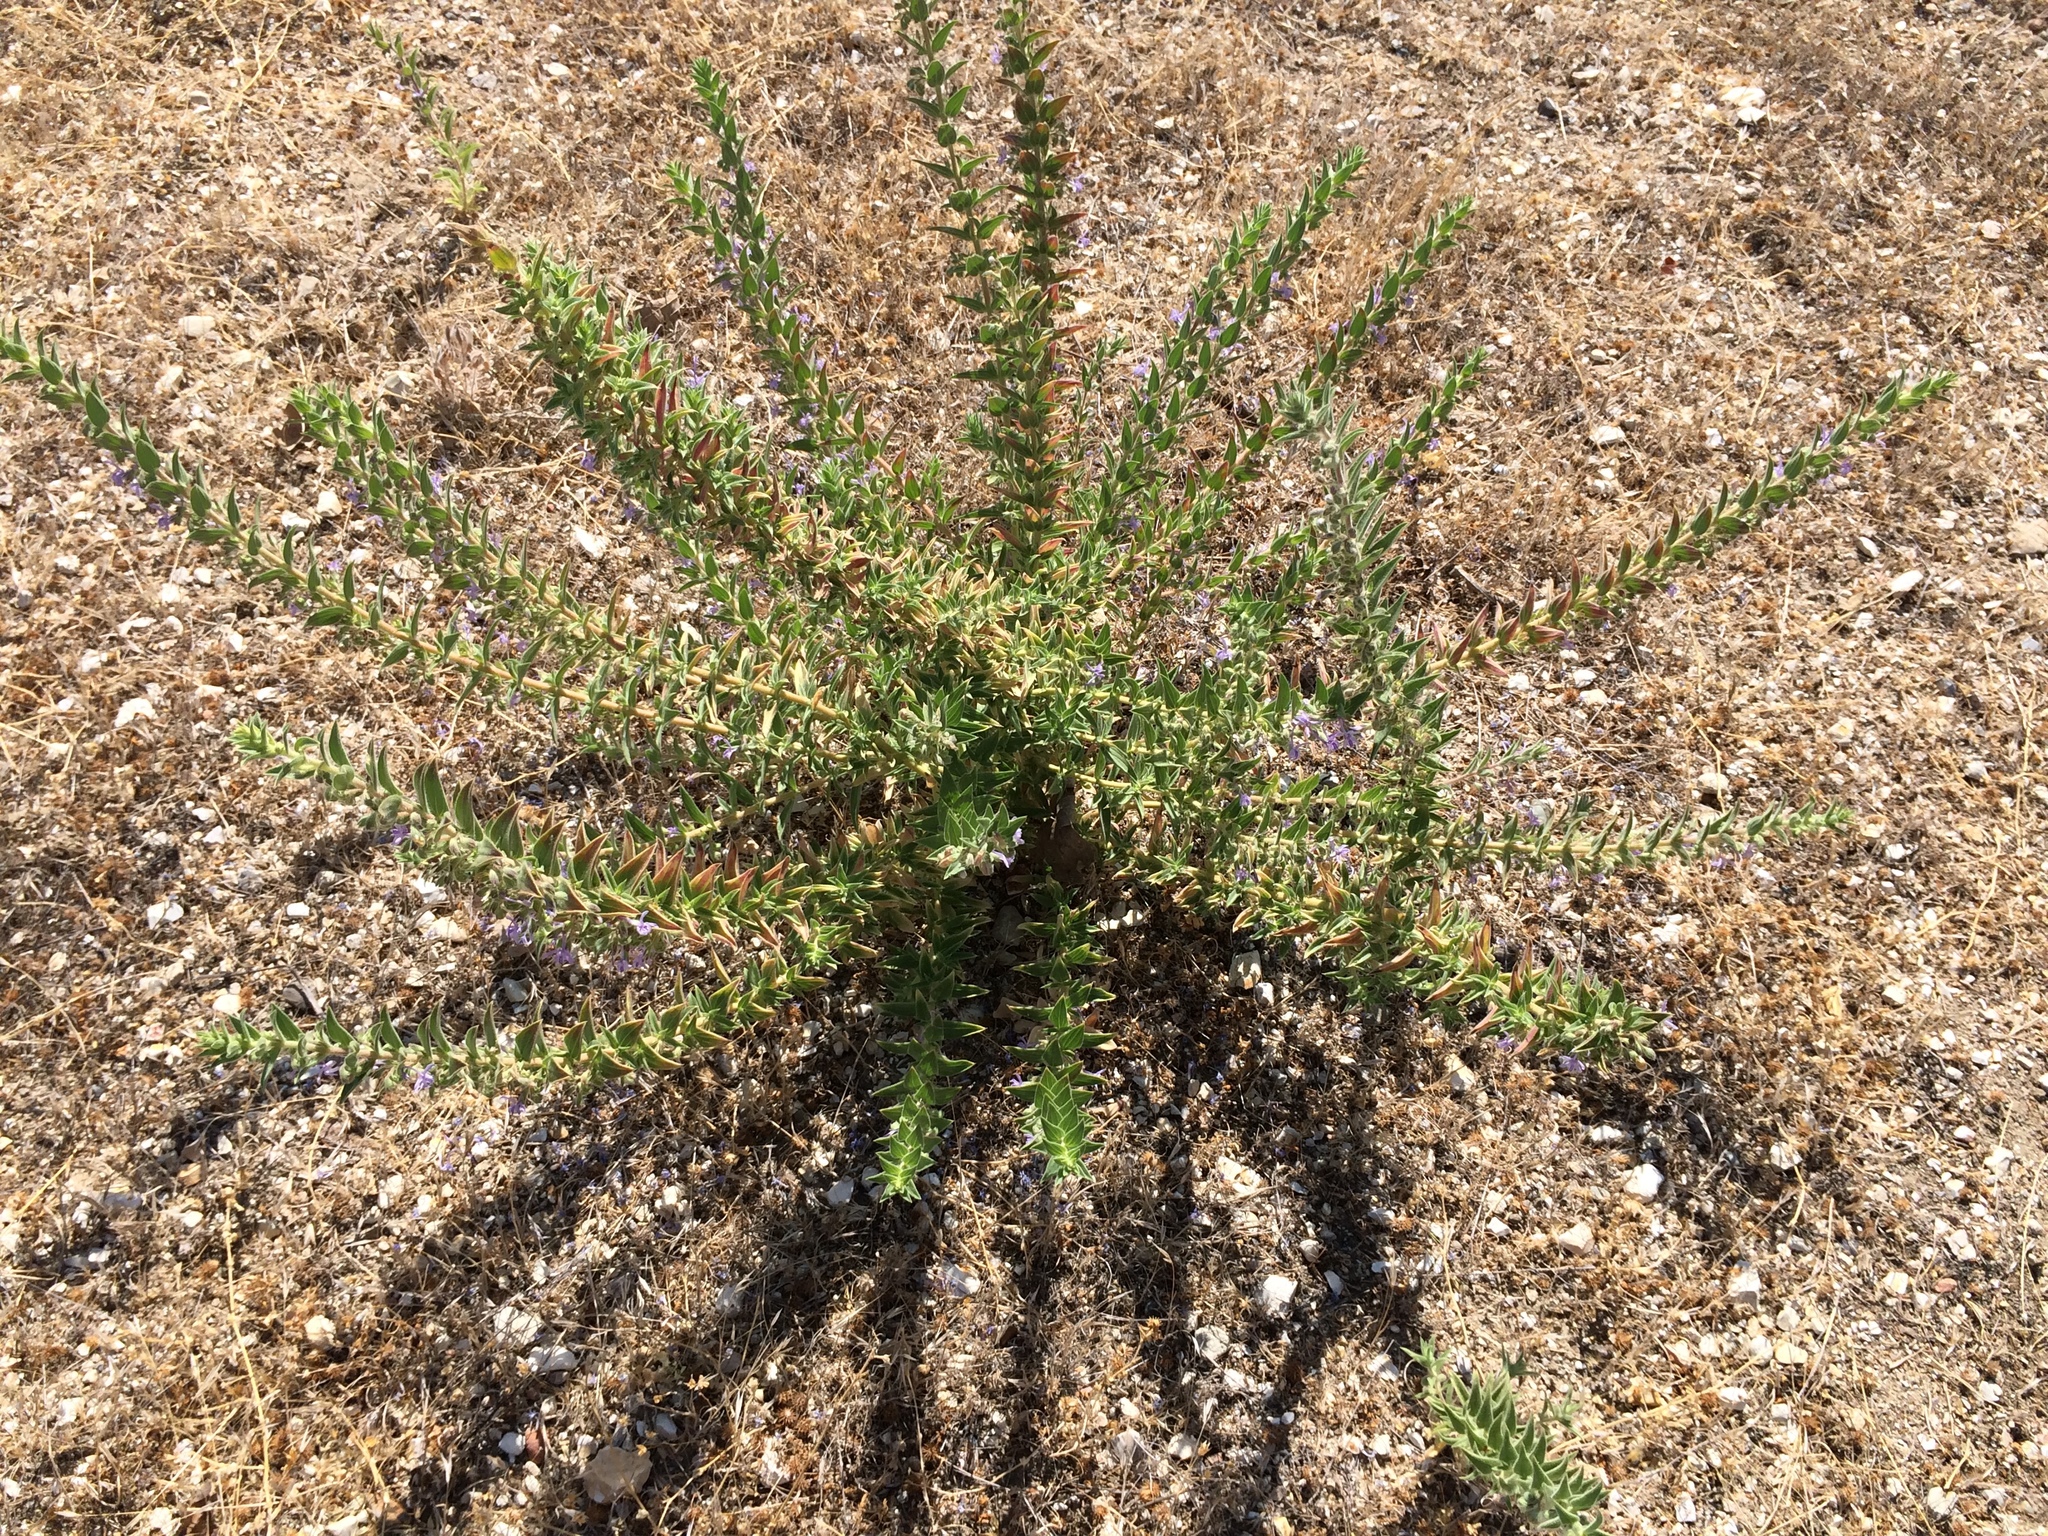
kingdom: Plantae
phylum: Tracheophyta
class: Magnoliopsida
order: Lamiales
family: Lamiaceae
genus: Trichostema
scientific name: Trichostema lanceolatum
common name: Vinegar-weed
